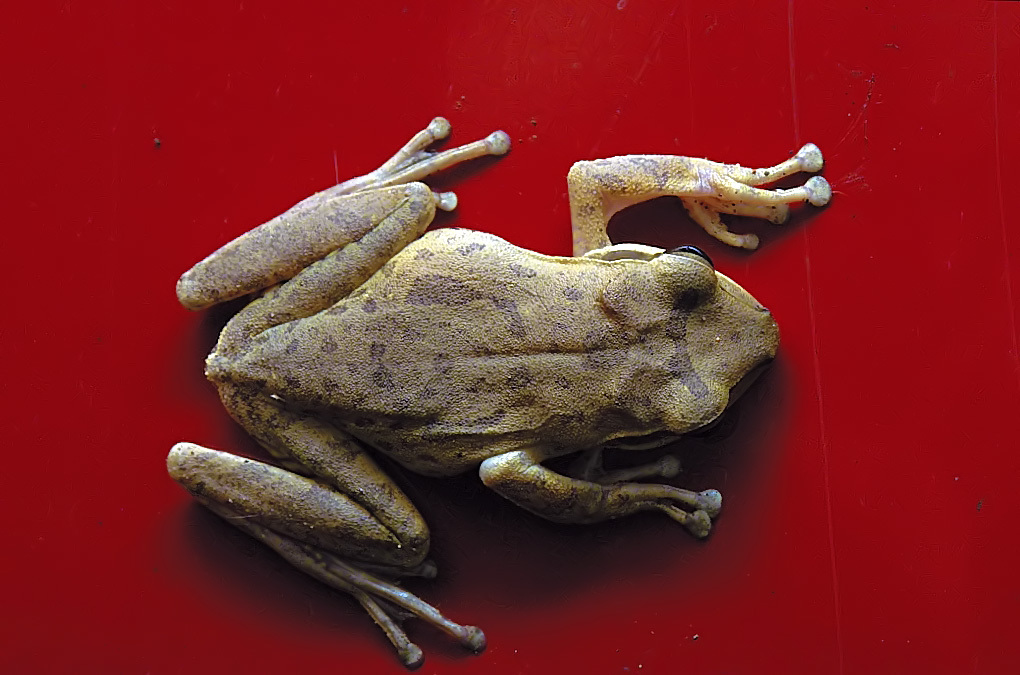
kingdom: Animalia
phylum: Chordata
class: Amphibia
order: Anura
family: Rhacophoridae
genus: Polypedates
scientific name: Polypedates maculatus
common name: Himalayan tree frog
